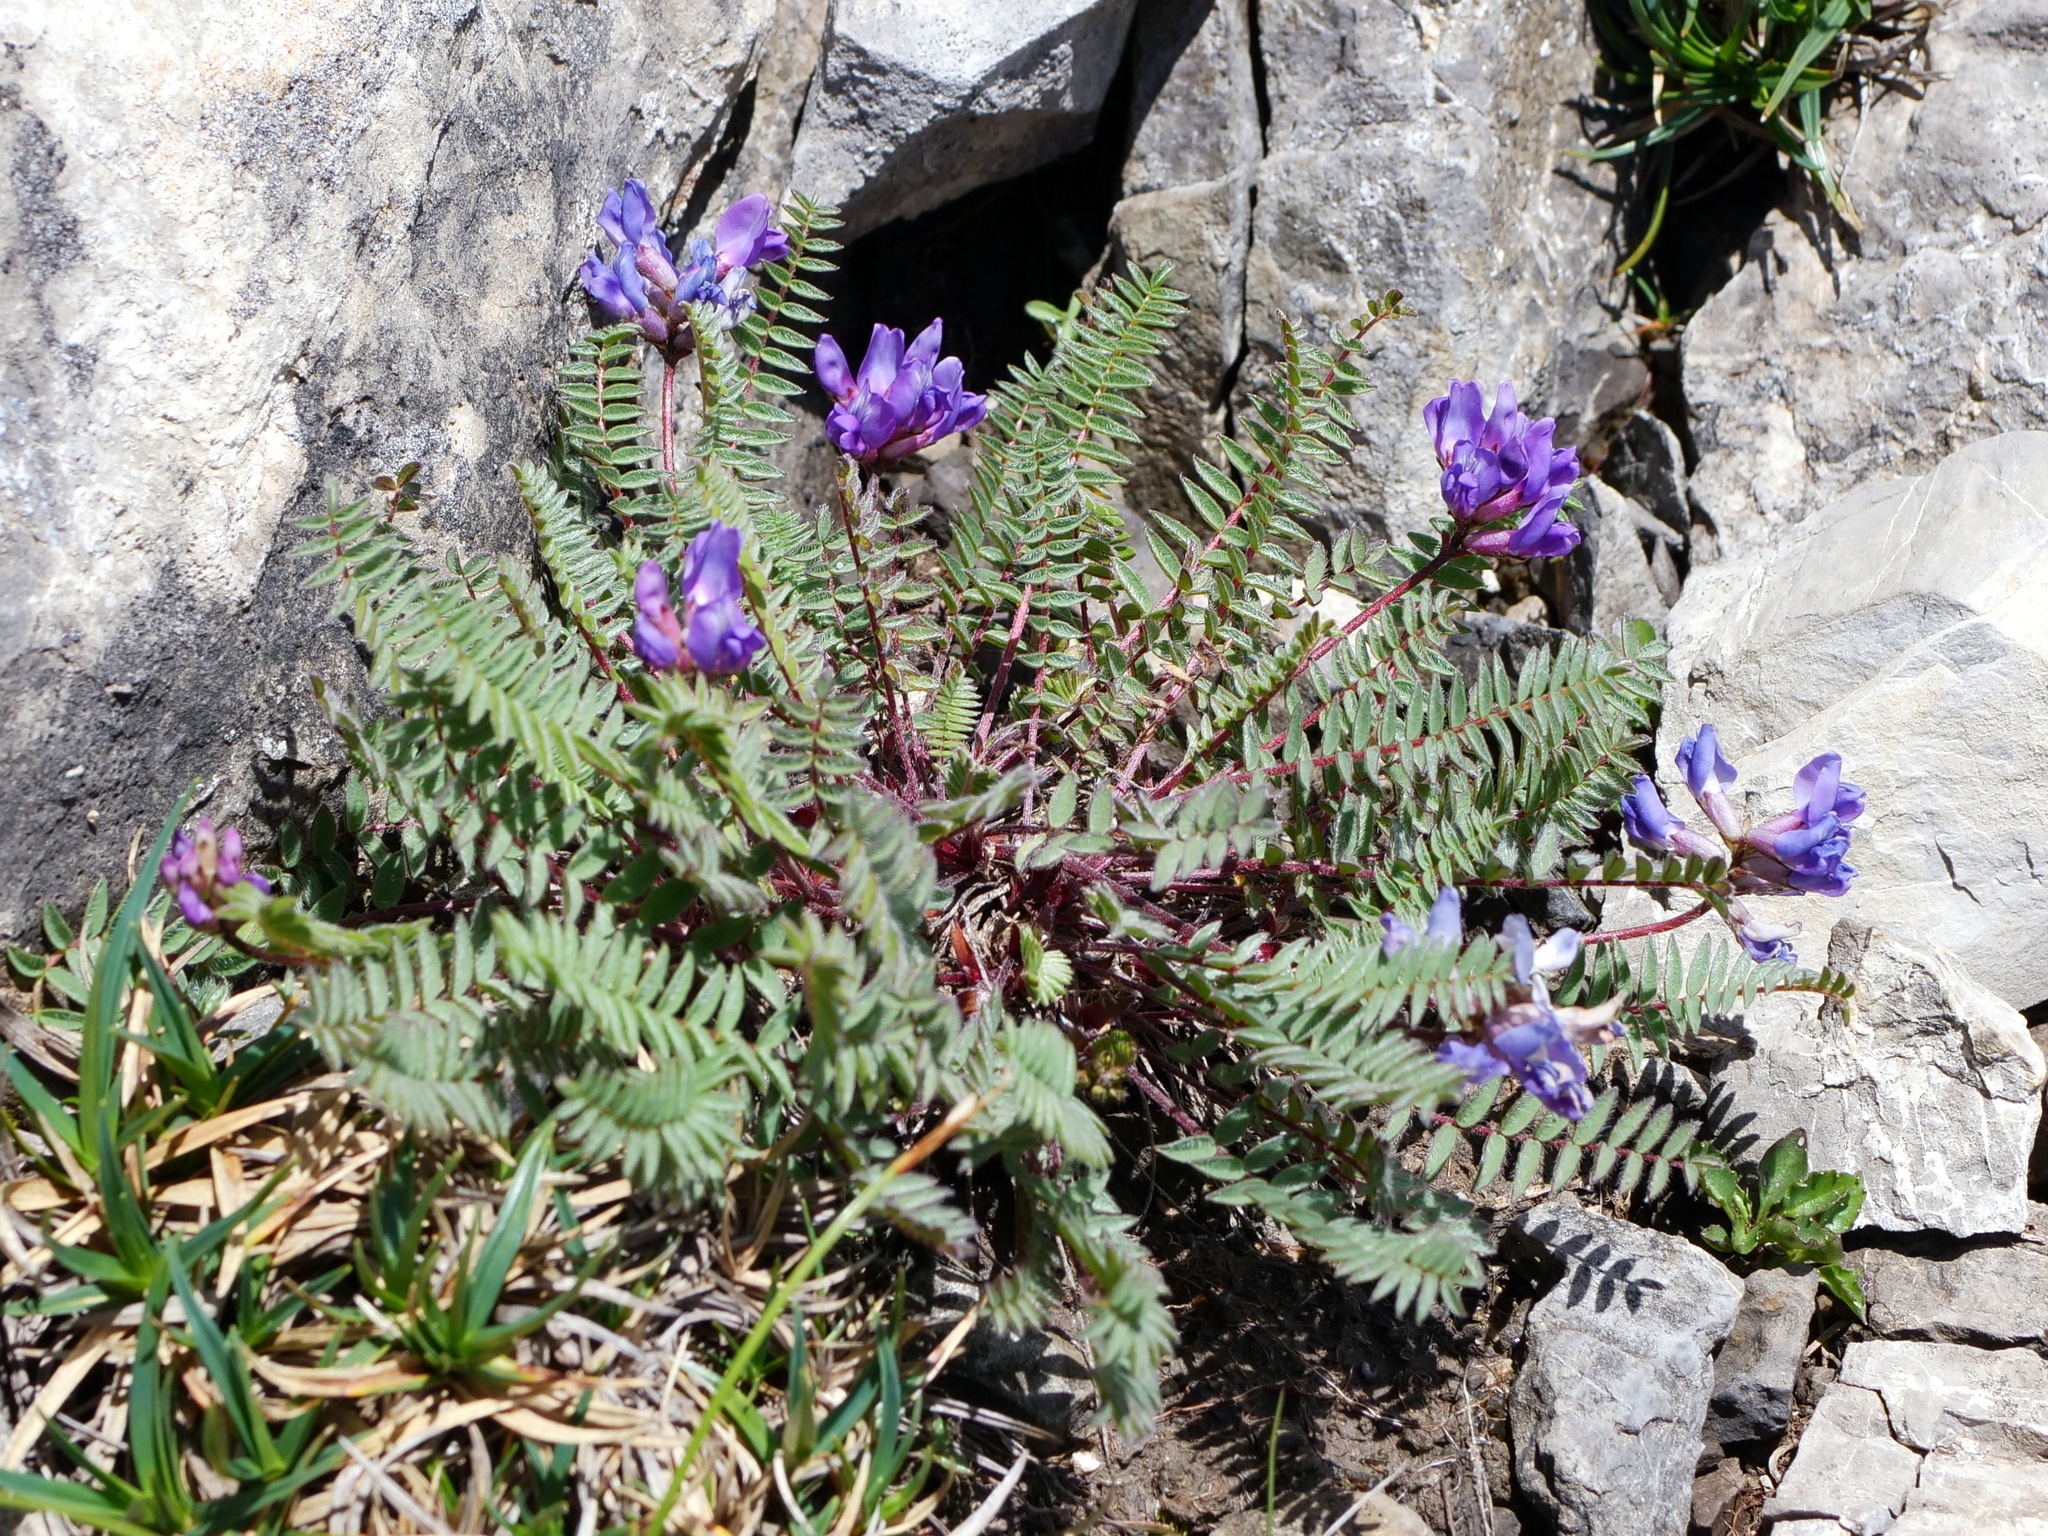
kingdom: Plantae
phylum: Tracheophyta
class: Magnoliopsida
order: Fabales
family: Fabaceae
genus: Oxytropis
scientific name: Oxytropis montana
